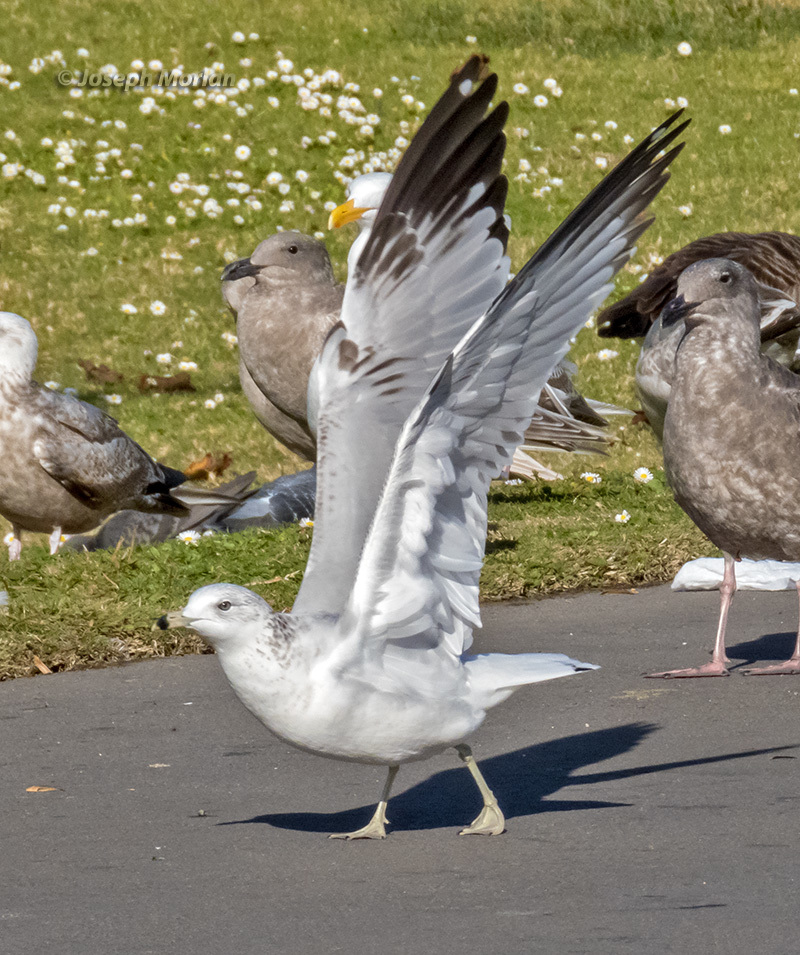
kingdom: Animalia
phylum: Chordata
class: Aves
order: Charadriiformes
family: Laridae
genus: Larus
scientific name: Larus delawarensis
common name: Ring-billed gull
